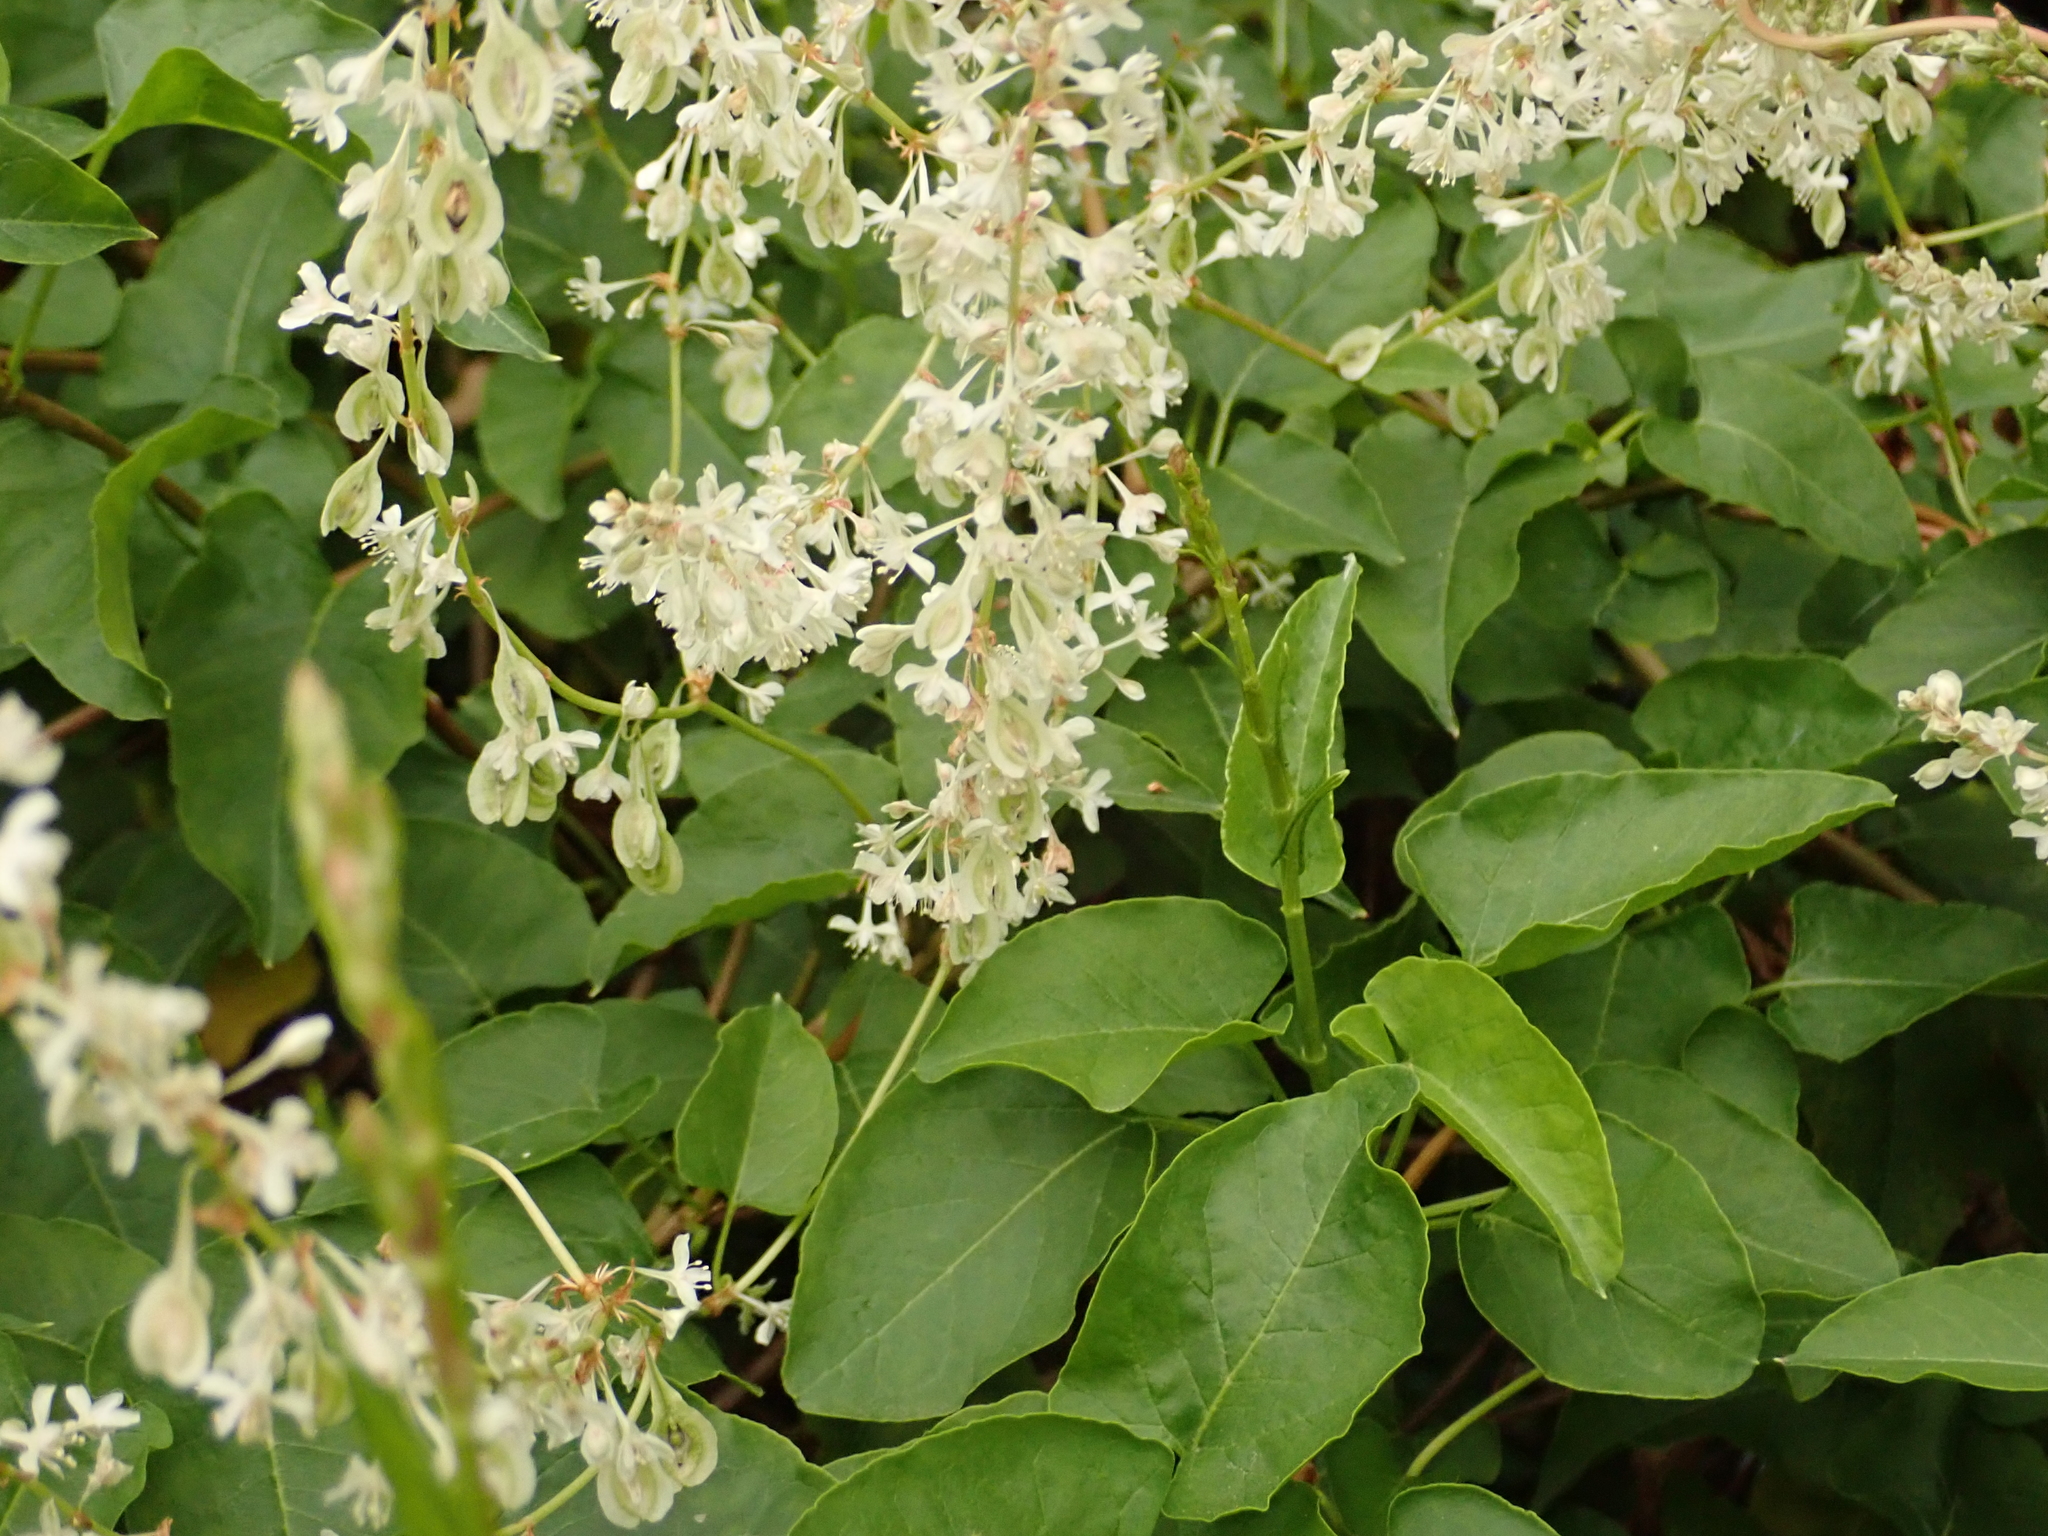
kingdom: Plantae
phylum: Tracheophyta
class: Magnoliopsida
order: Caryophyllales
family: Polygonaceae
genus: Fallopia
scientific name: Fallopia baldschuanica
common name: Russian-vine
